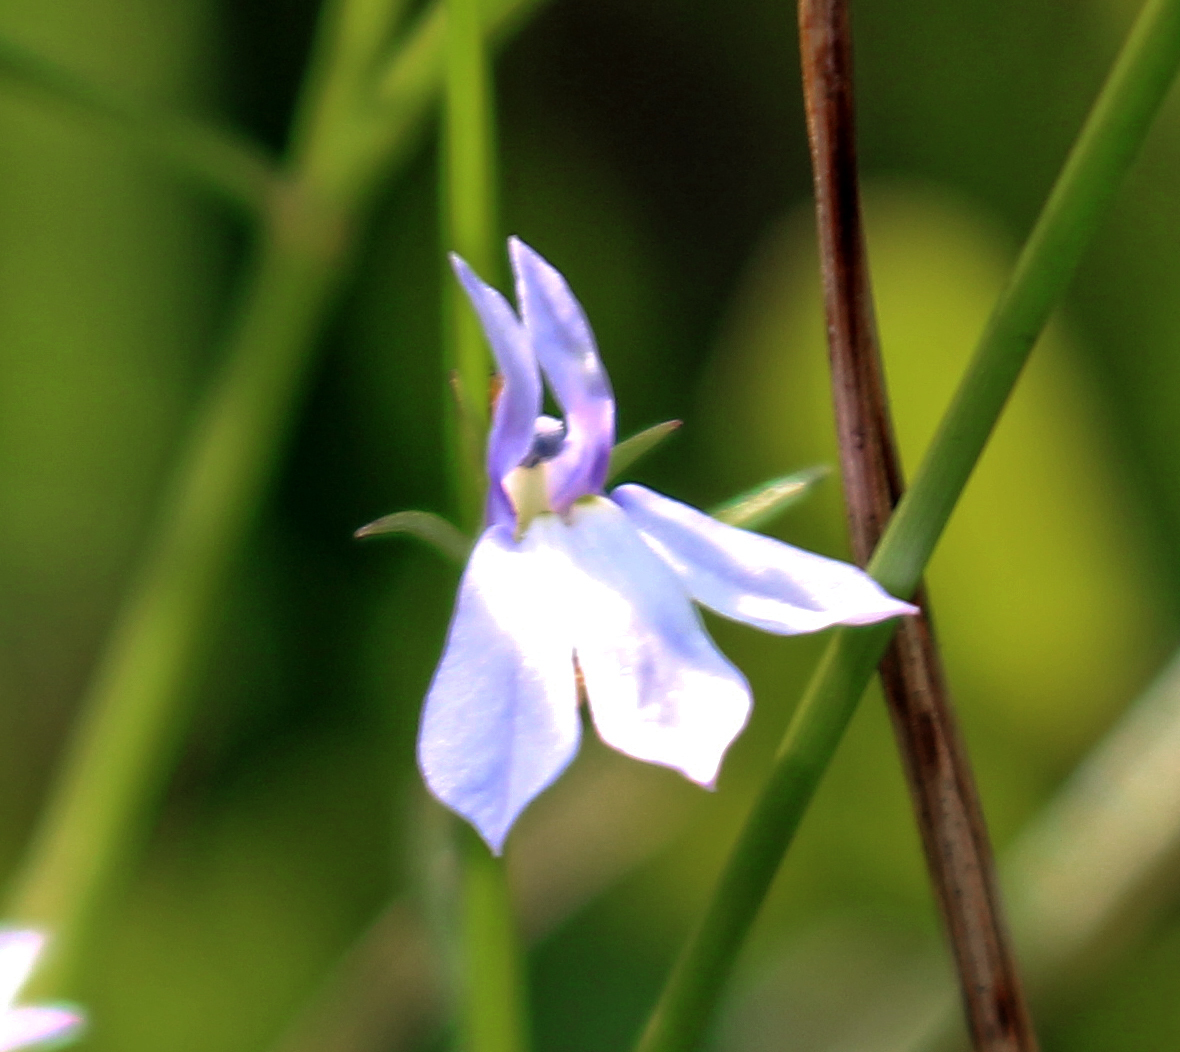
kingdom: Plantae
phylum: Tracheophyta
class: Magnoliopsida
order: Asterales
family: Campanulaceae
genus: Lobelia
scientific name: Lobelia kalmii
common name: Kalm's lobelia
